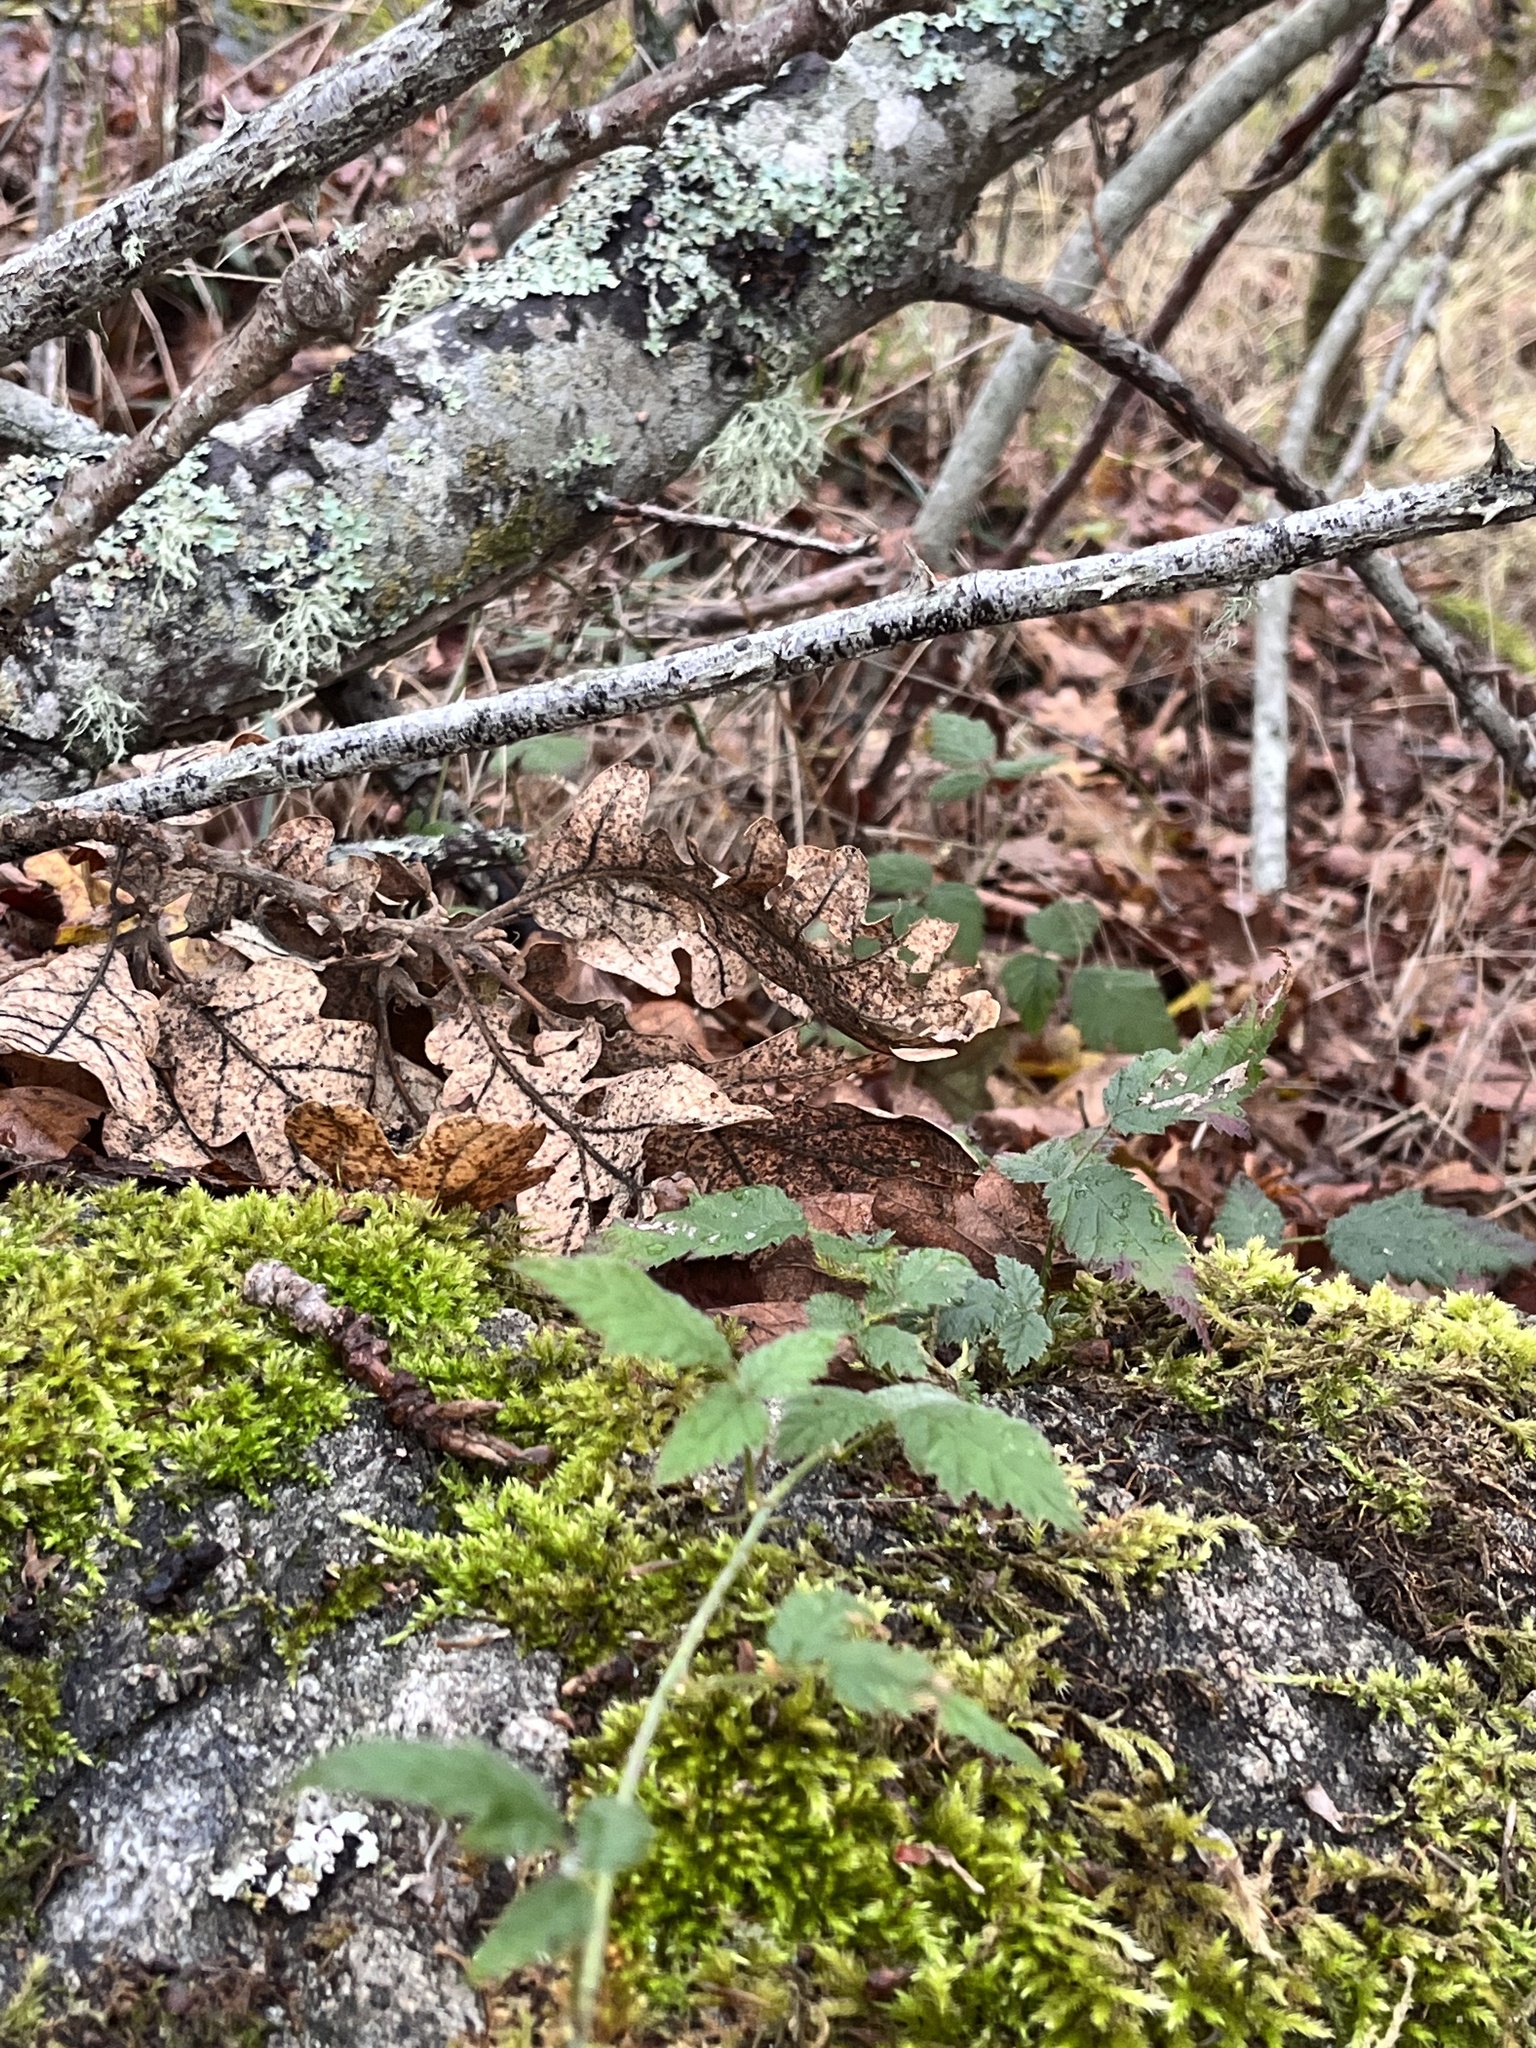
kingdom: Plantae
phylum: Tracheophyta
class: Magnoliopsida
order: Rosales
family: Rosaceae
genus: Rubus
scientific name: Rubus ursinus
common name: Pacific blackberry
